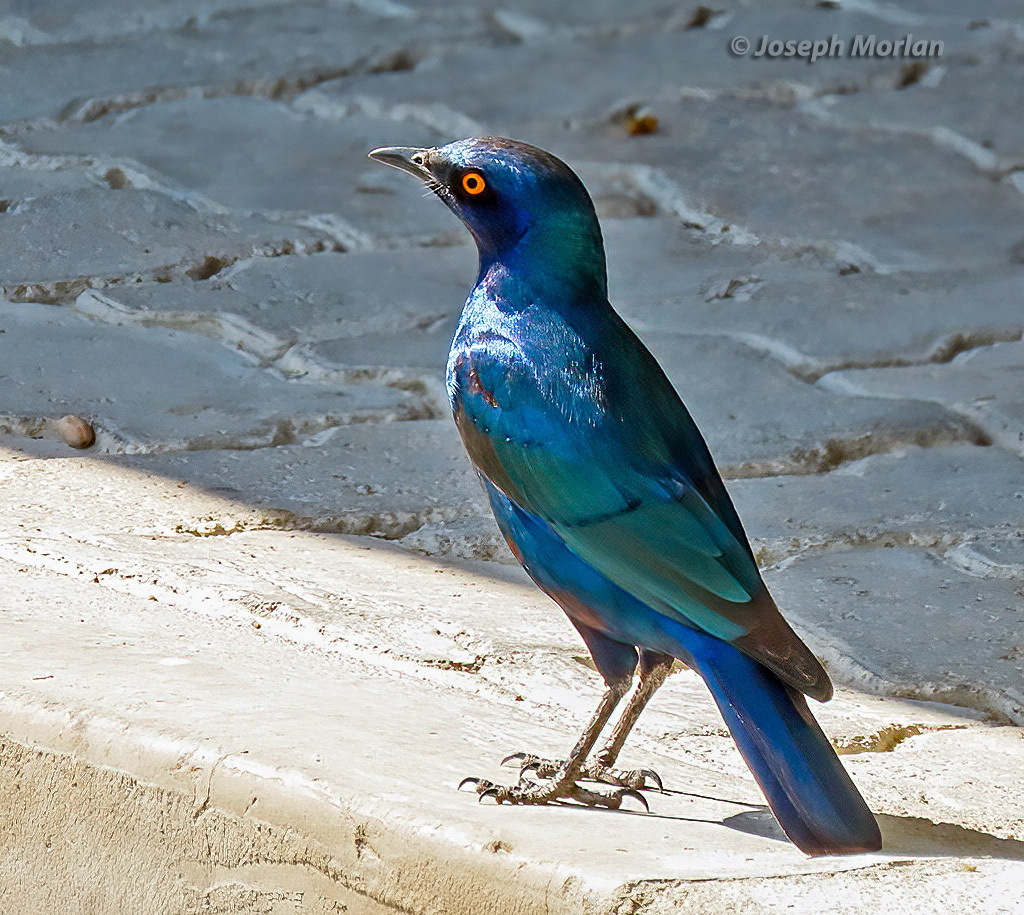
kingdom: Animalia
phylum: Chordata
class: Aves
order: Passeriformes
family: Sturnidae
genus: Lamprotornis
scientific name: Lamprotornis nitens
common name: Cape starling
